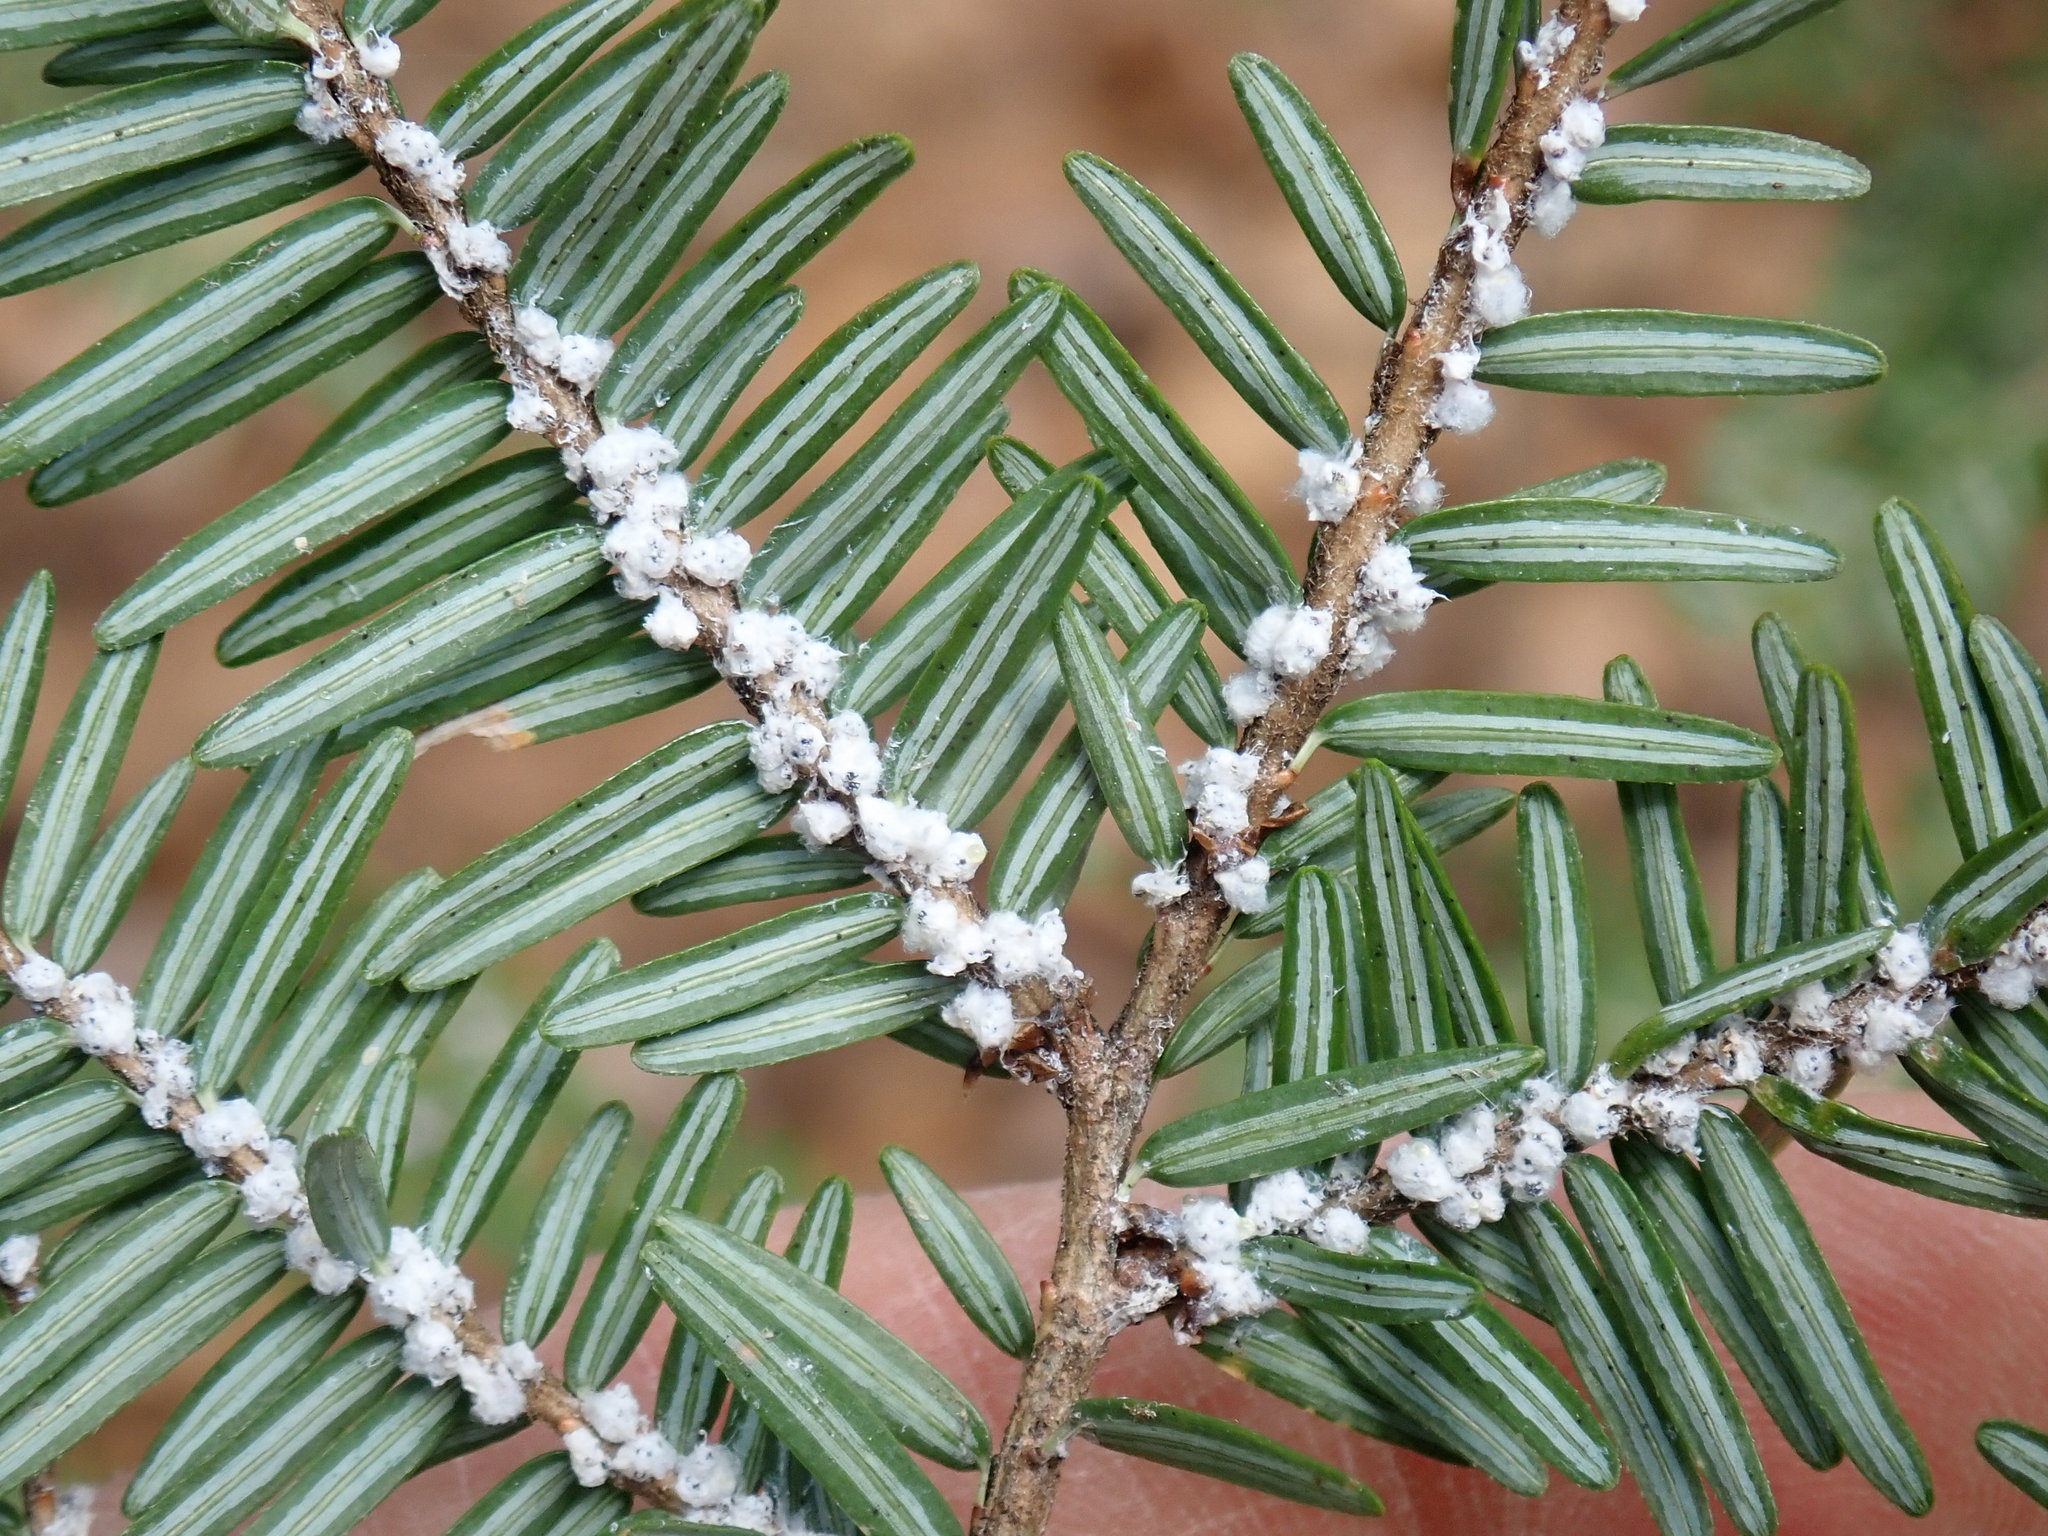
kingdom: Animalia
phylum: Arthropoda
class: Insecta
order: Hemiptera
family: Adelgidae
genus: Adelges
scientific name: Adelges tsugae
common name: Hemlock woolly adelgid
